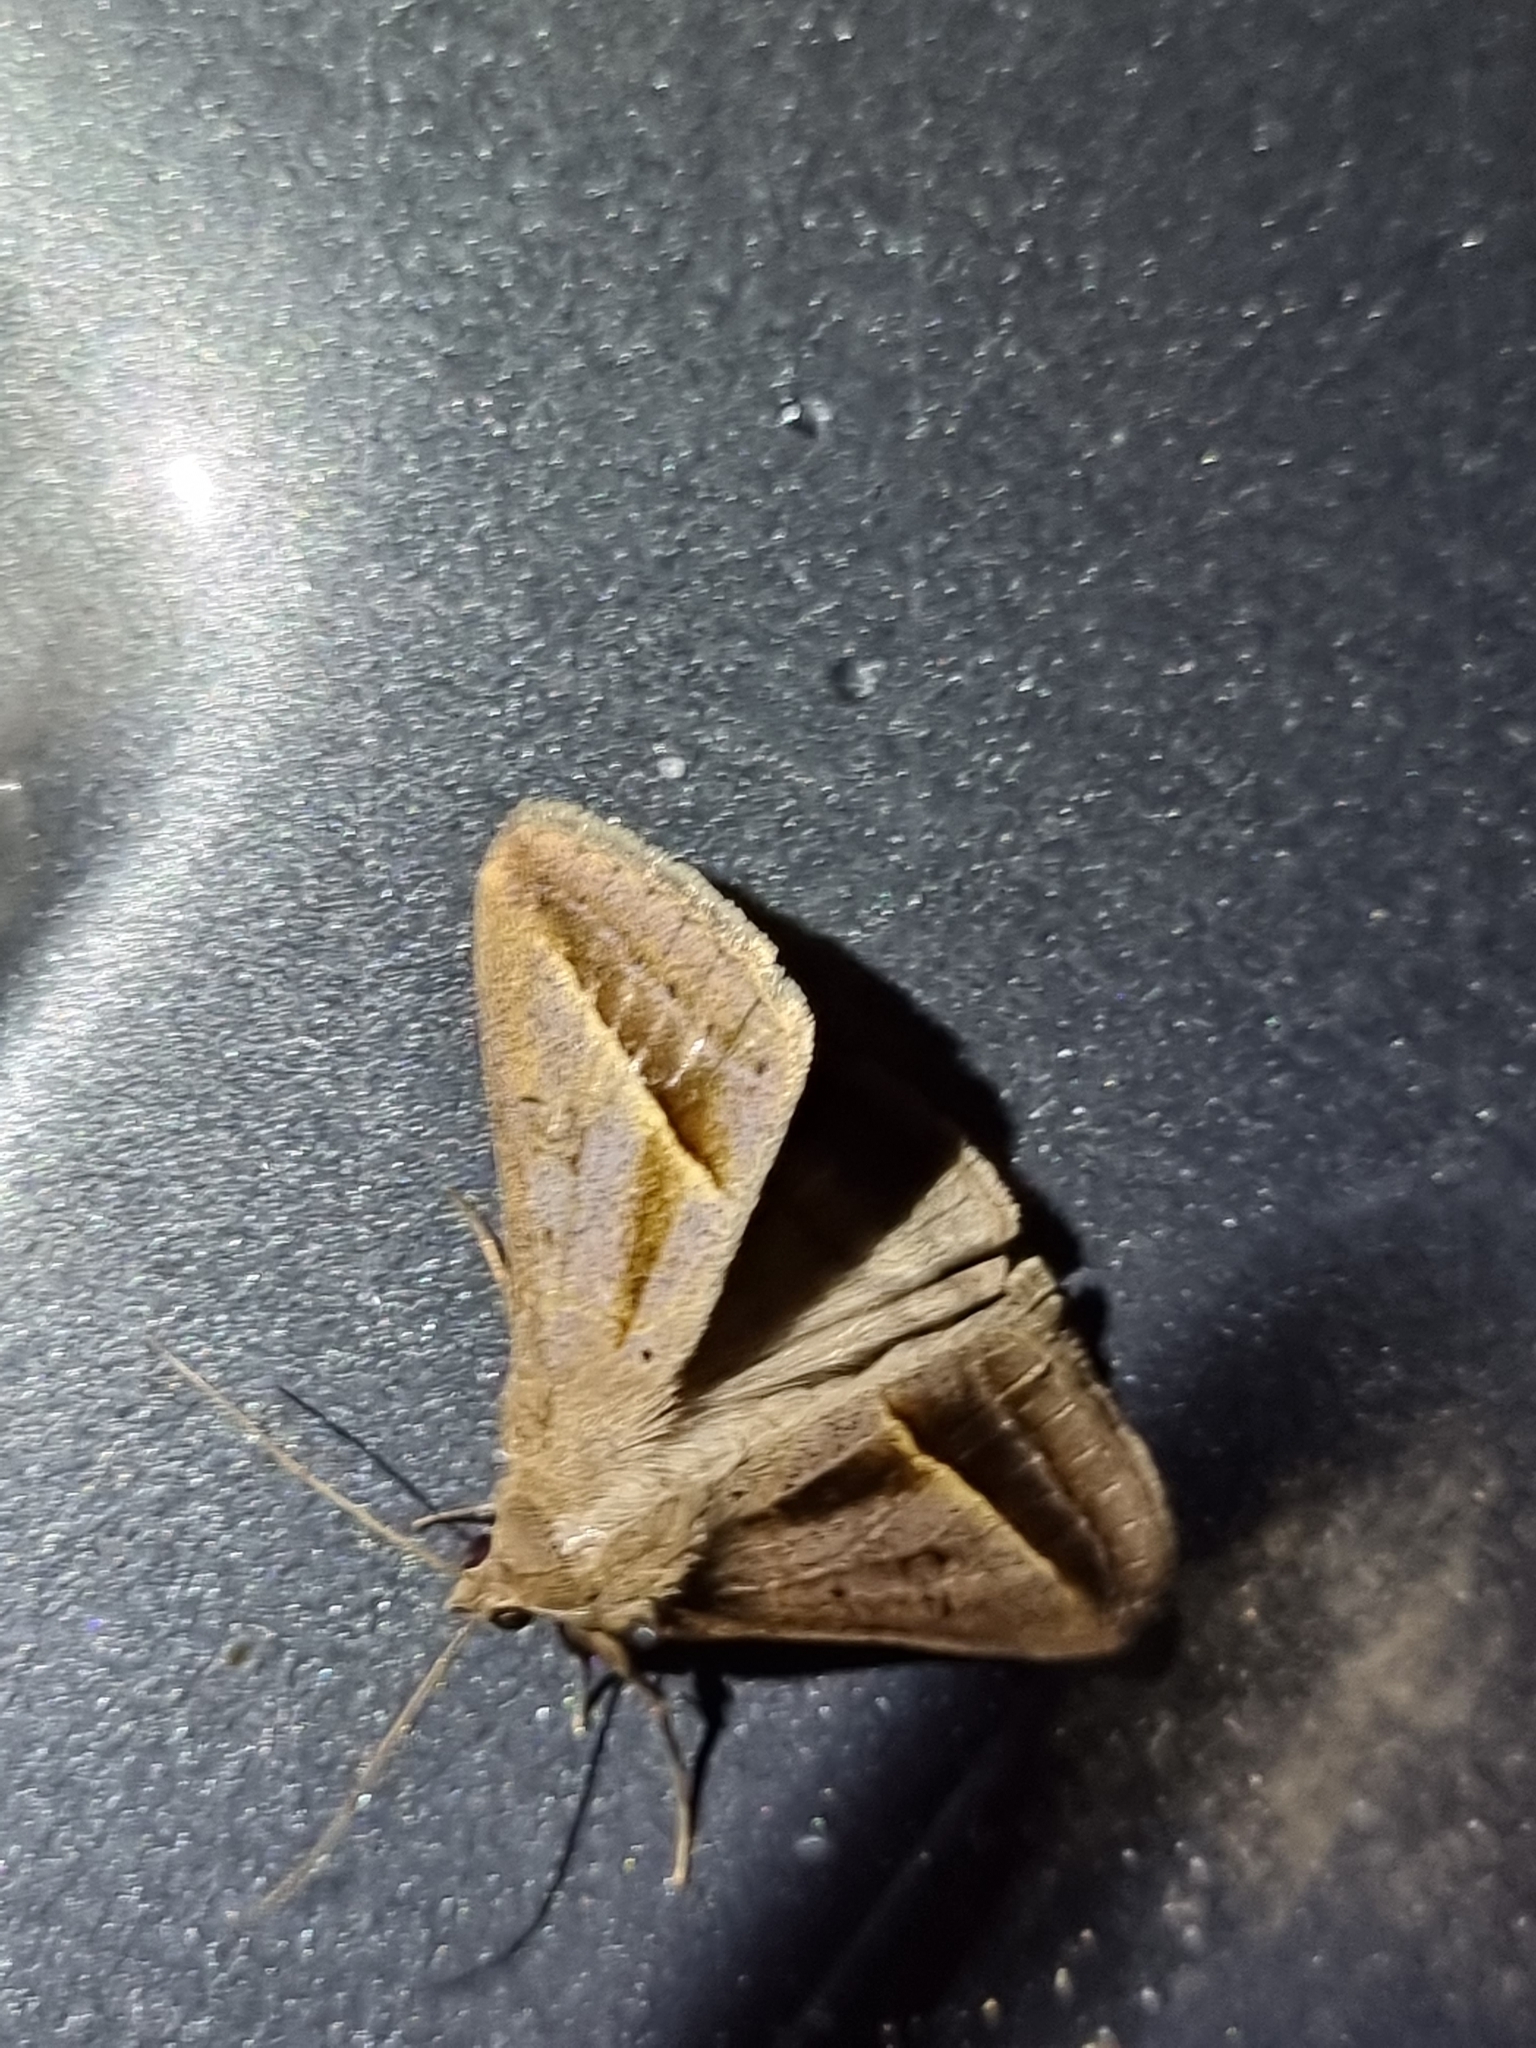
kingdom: Animalia
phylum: Arthropoda
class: Insecta
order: Lepidoptera
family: Erebidae
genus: Mocis
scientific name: Mocis frugalis
